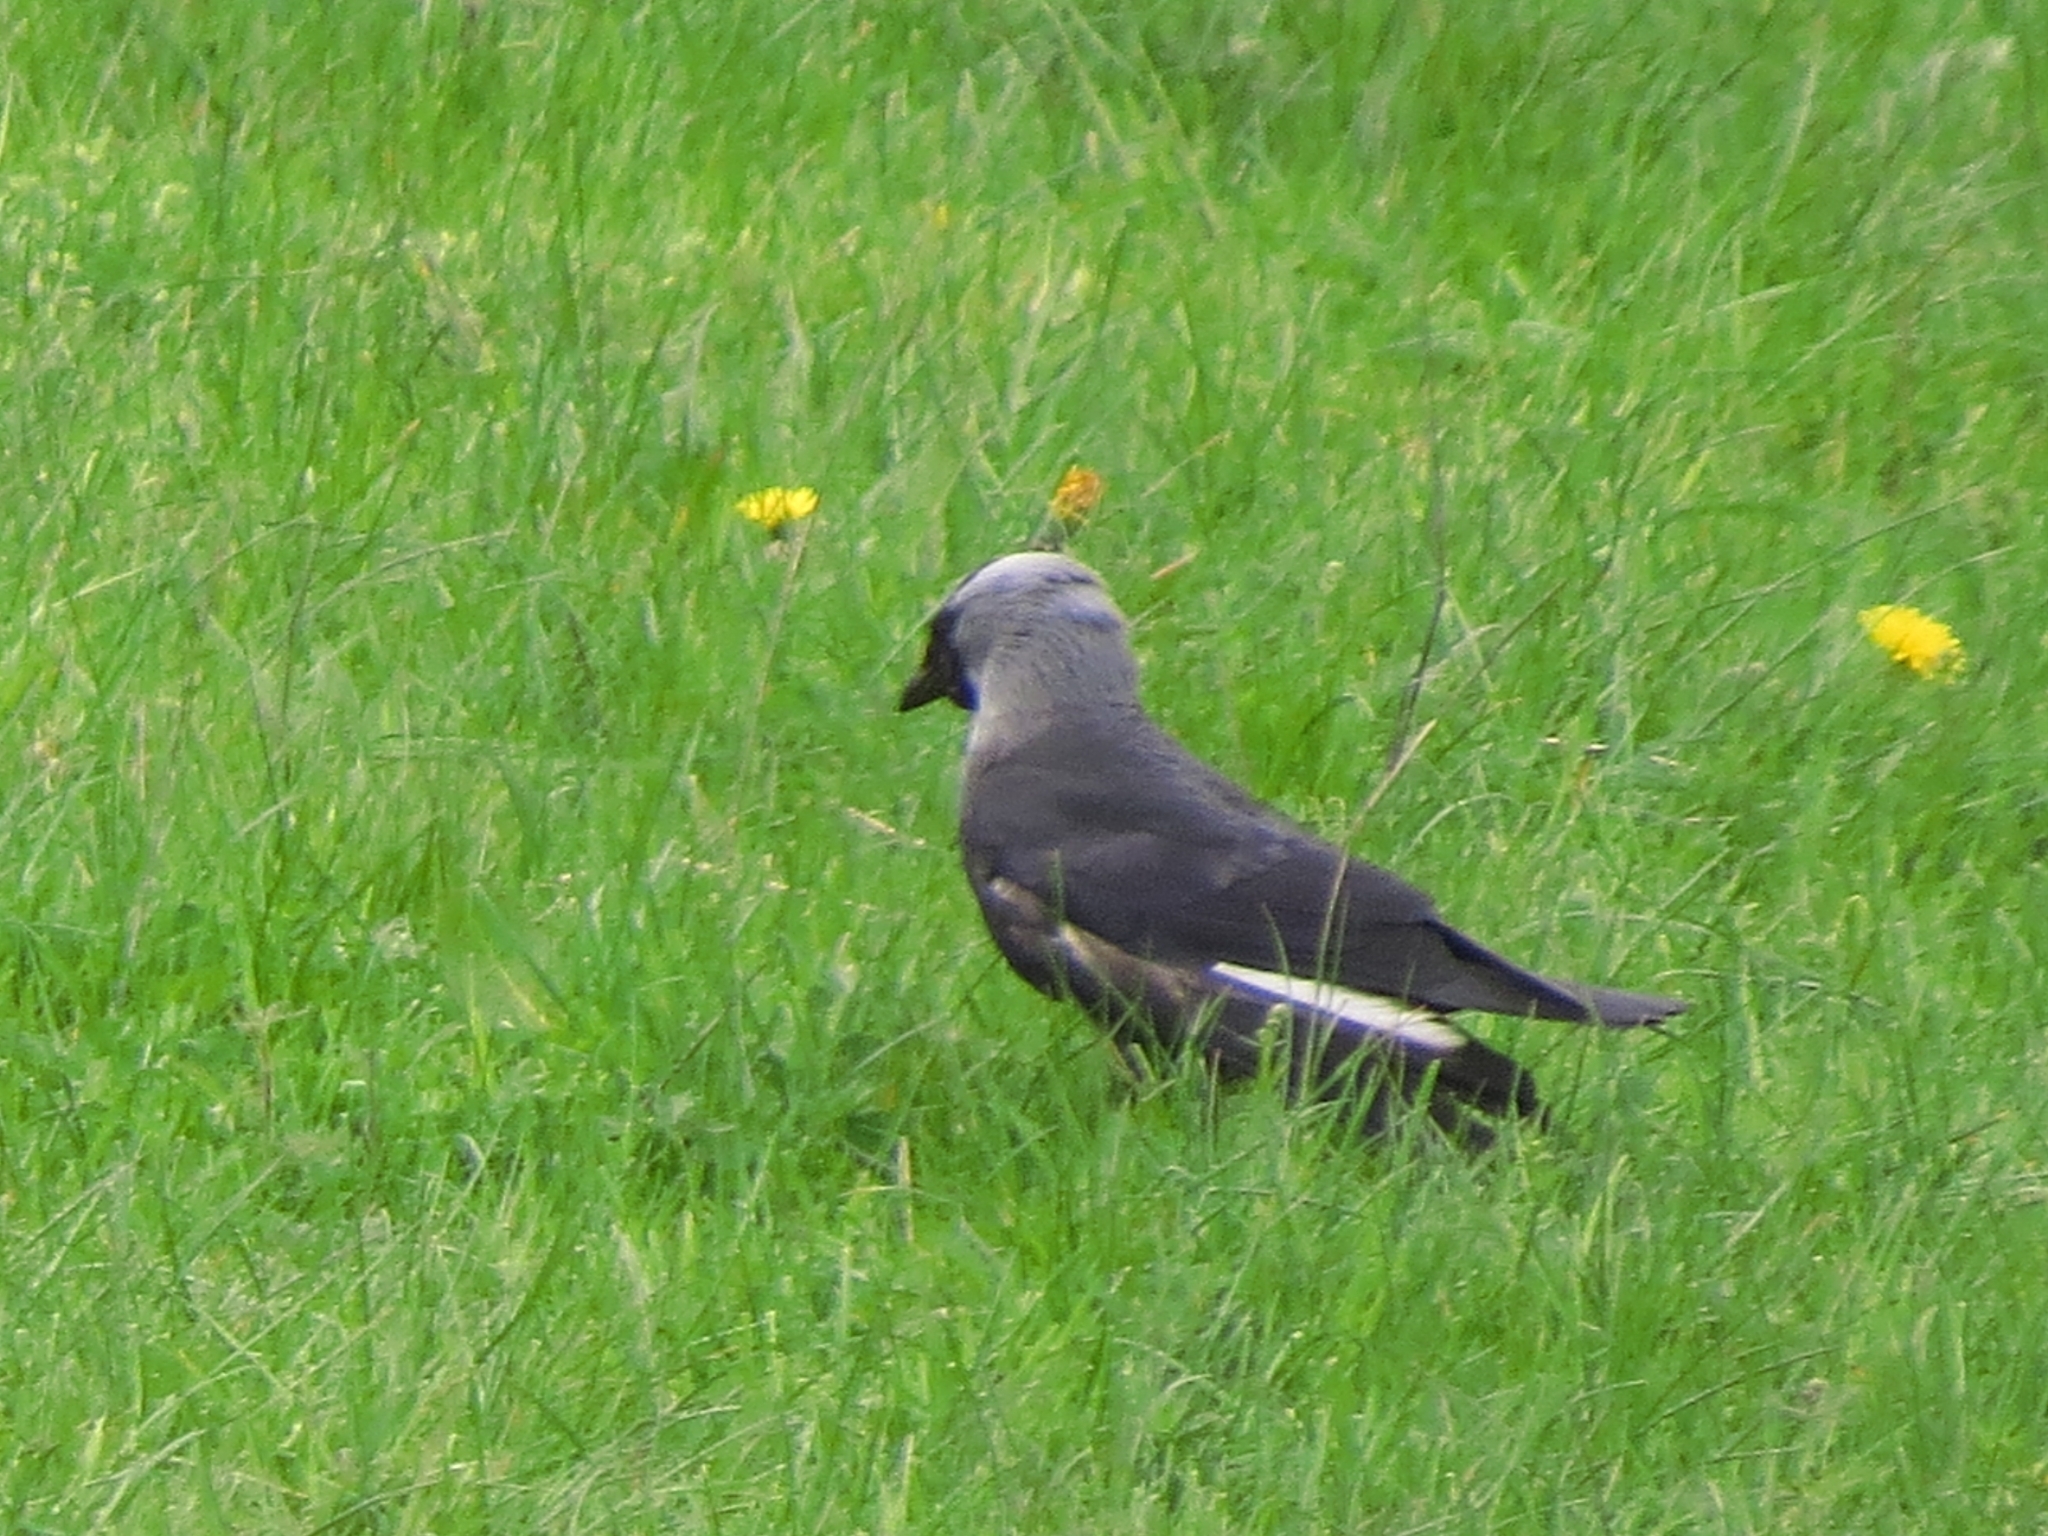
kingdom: Animalia
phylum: Chordata
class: Aves
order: Passeriformes
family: Corvidae
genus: Coloeus
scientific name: Coloeus monedula
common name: Western jackdaw
